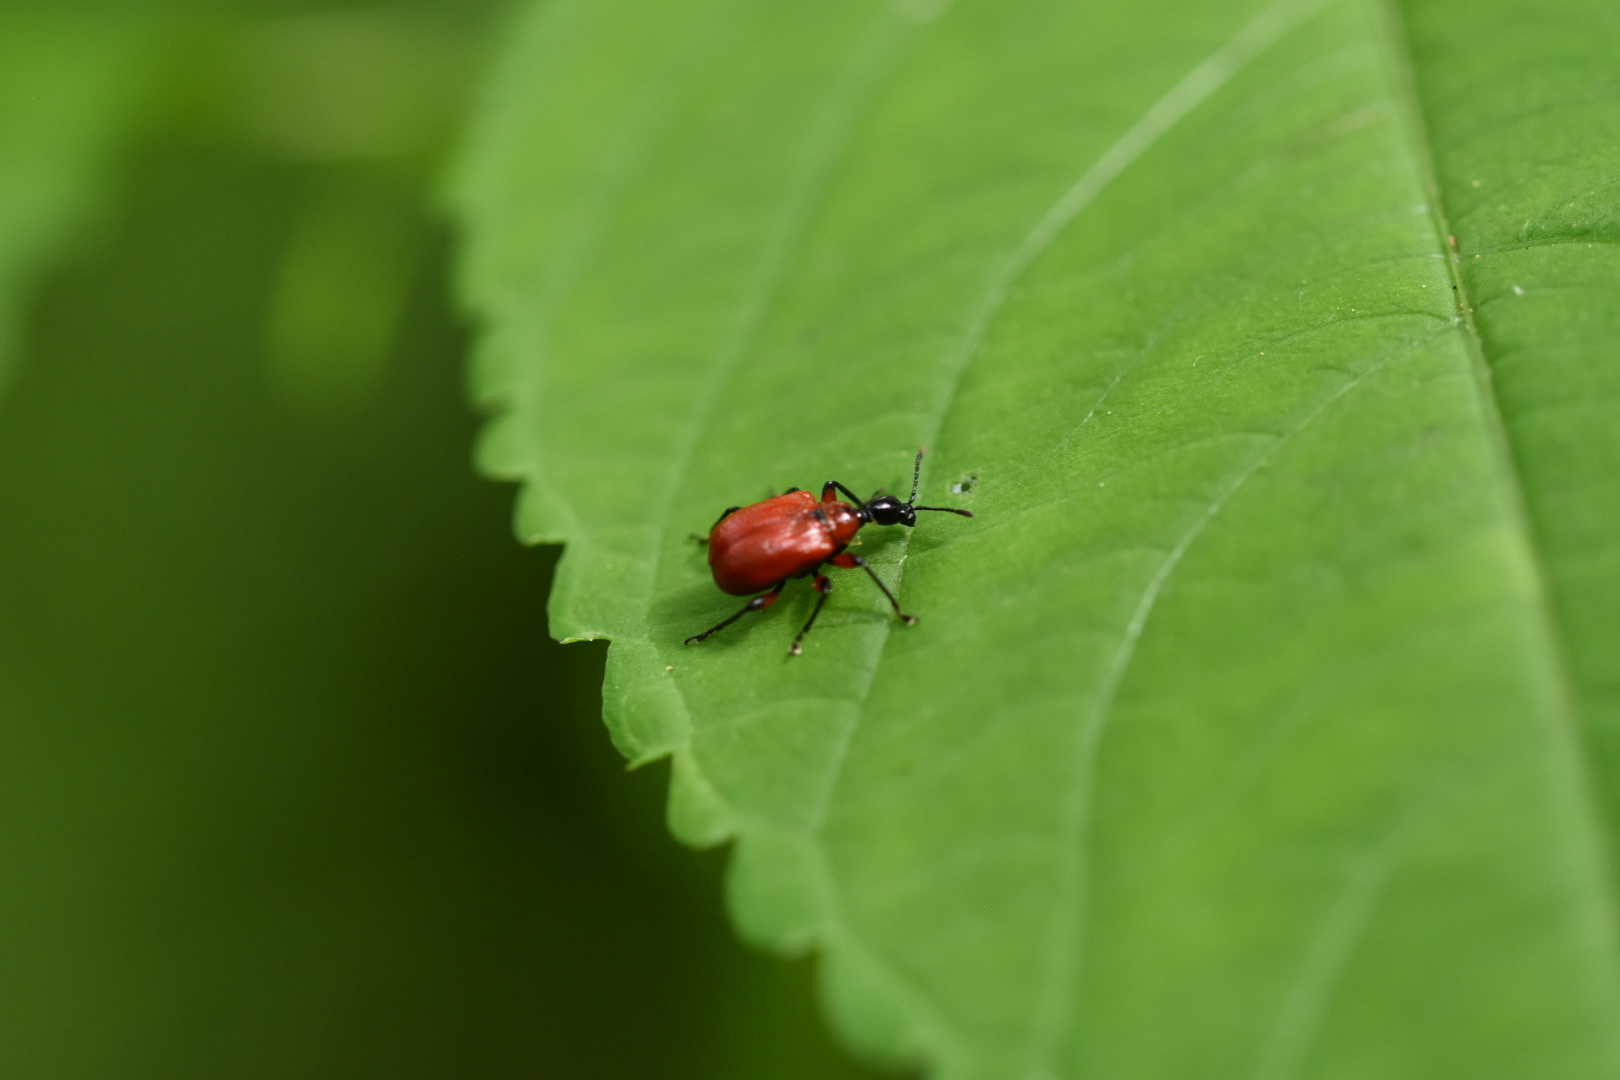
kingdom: Animalia
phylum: Arthropoda
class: Insecta
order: Coleoptera
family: Attelabidae
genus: Apoderus
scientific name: Apoderus coryli
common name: Hazel leaf roller
